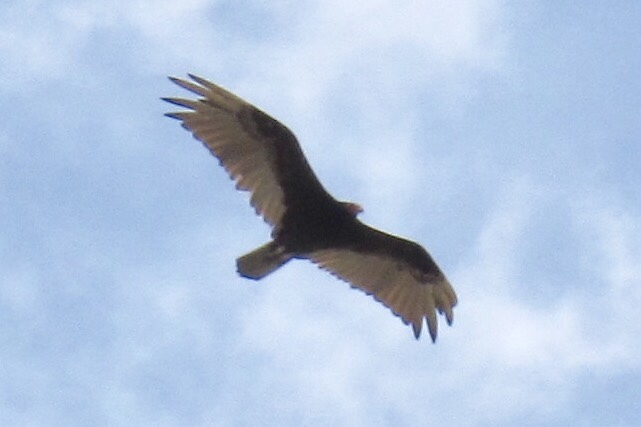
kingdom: Animalia
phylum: Chordata
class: Aves
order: Accipitriformes
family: Cathartidae
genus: Cathartes
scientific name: Cathartes aura
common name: Turkey vulture
